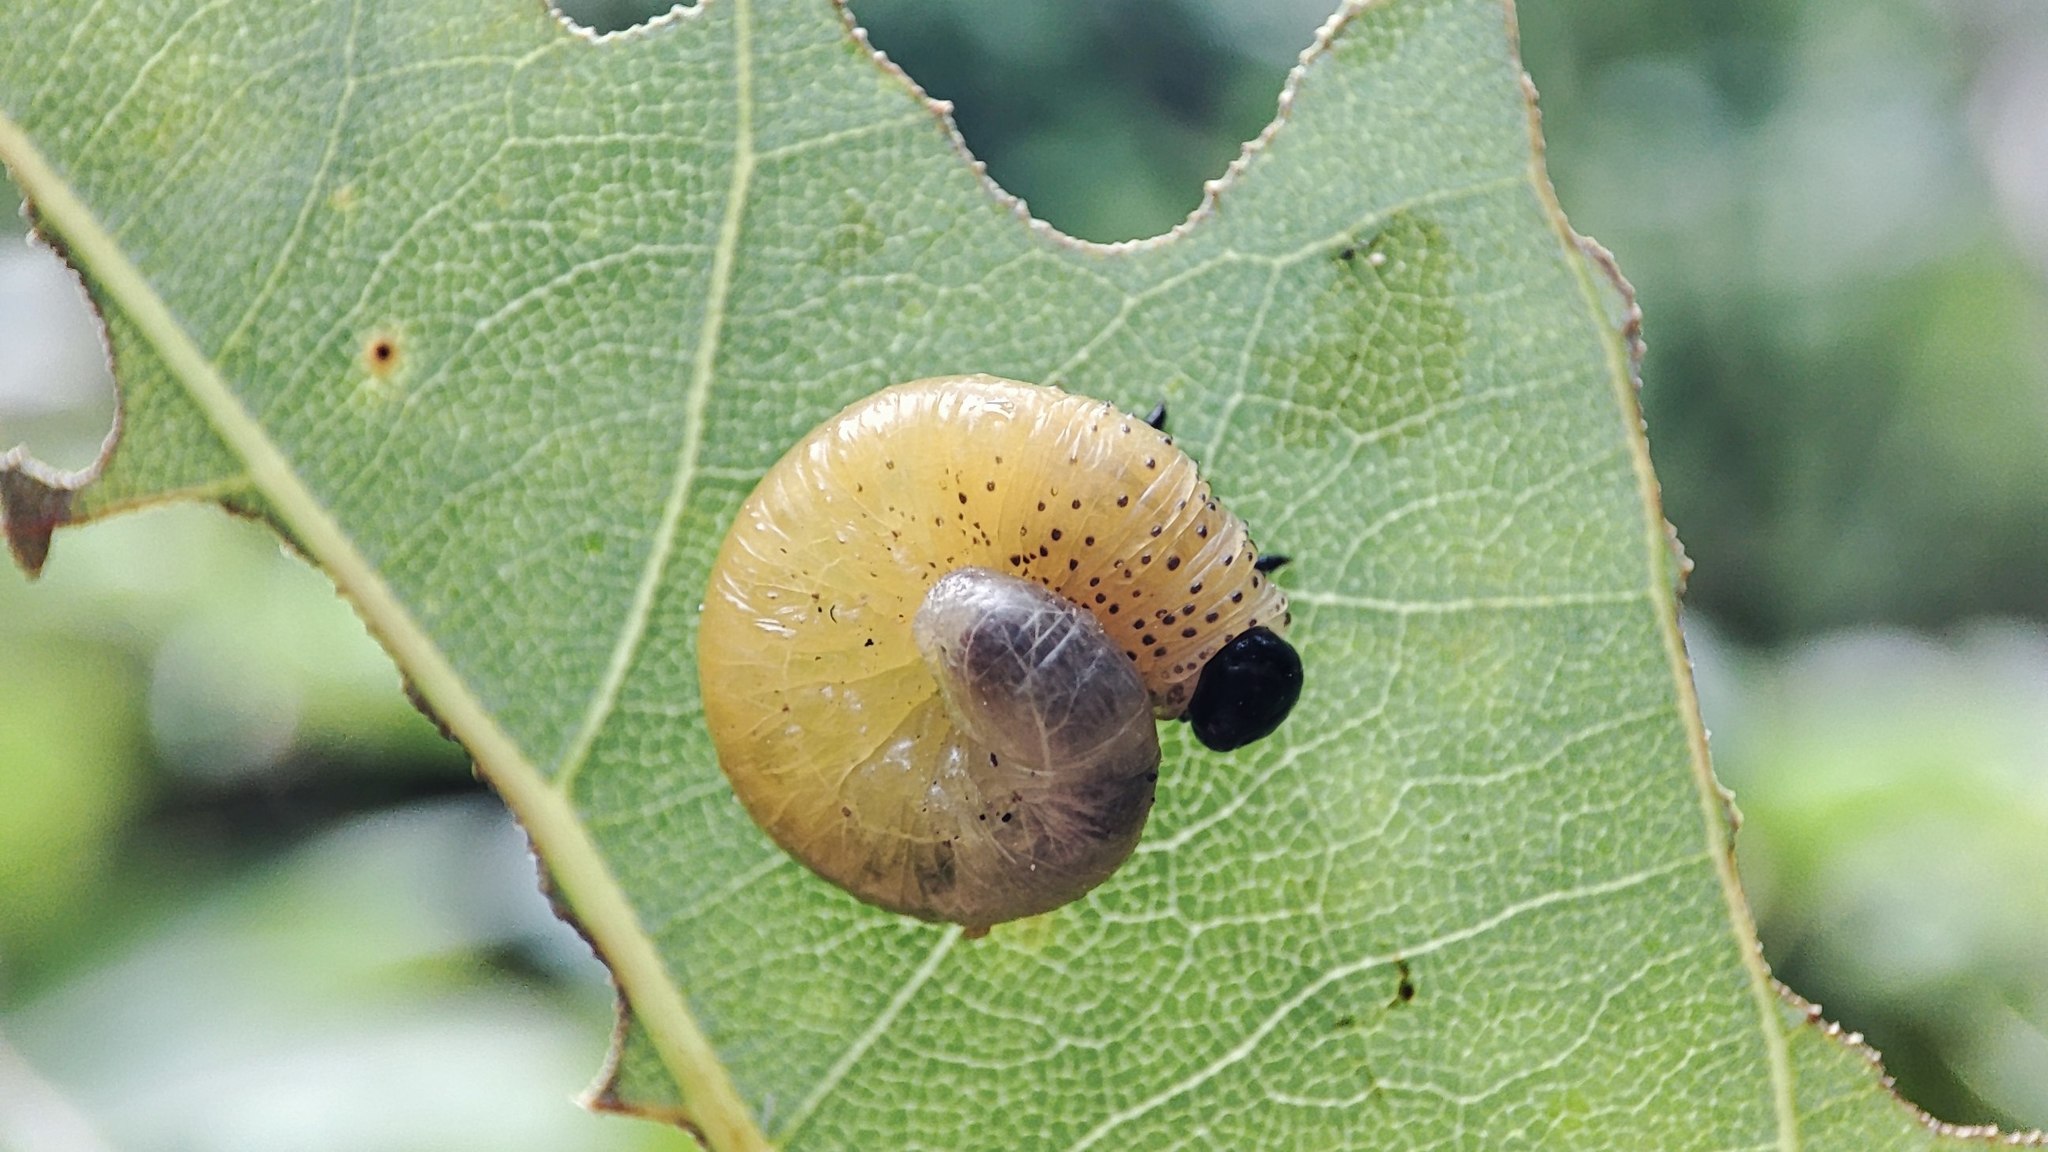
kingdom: Animalia
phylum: Arthropoda
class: Insecta
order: Hymenoptera
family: Tenthredinidae
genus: Moricella
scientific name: Moricella rufonota
